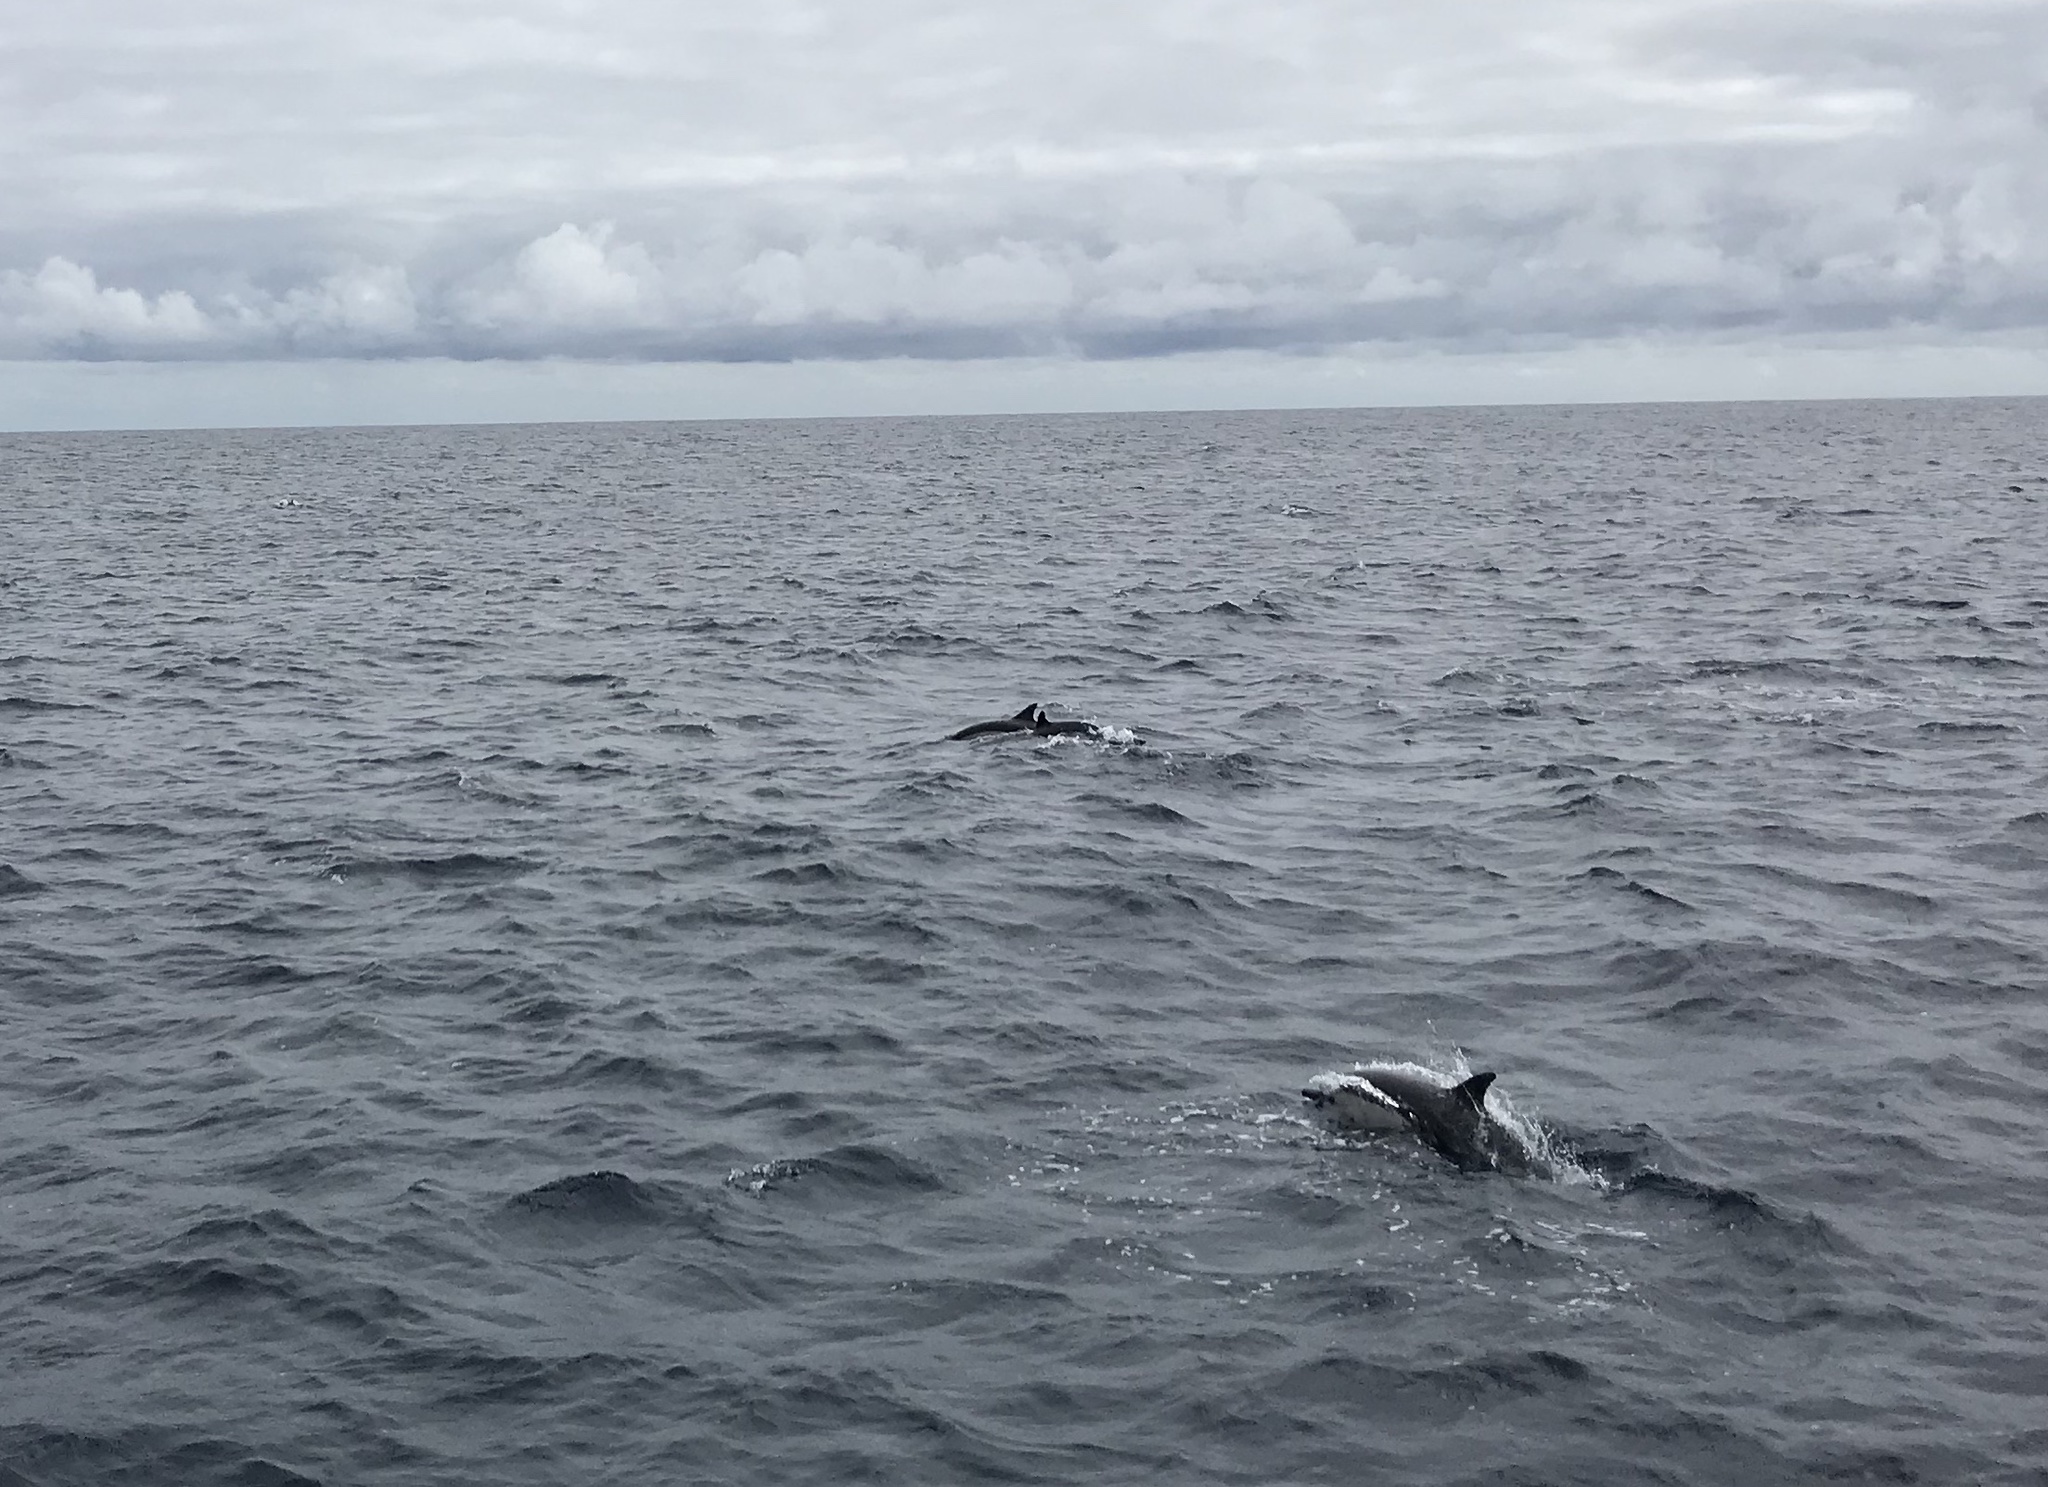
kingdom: Animalia
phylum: Chordata
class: Mammalia
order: Cetacea
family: Delphinidae
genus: Delphinus
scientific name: Delphinus delphis
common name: Common dolphin
